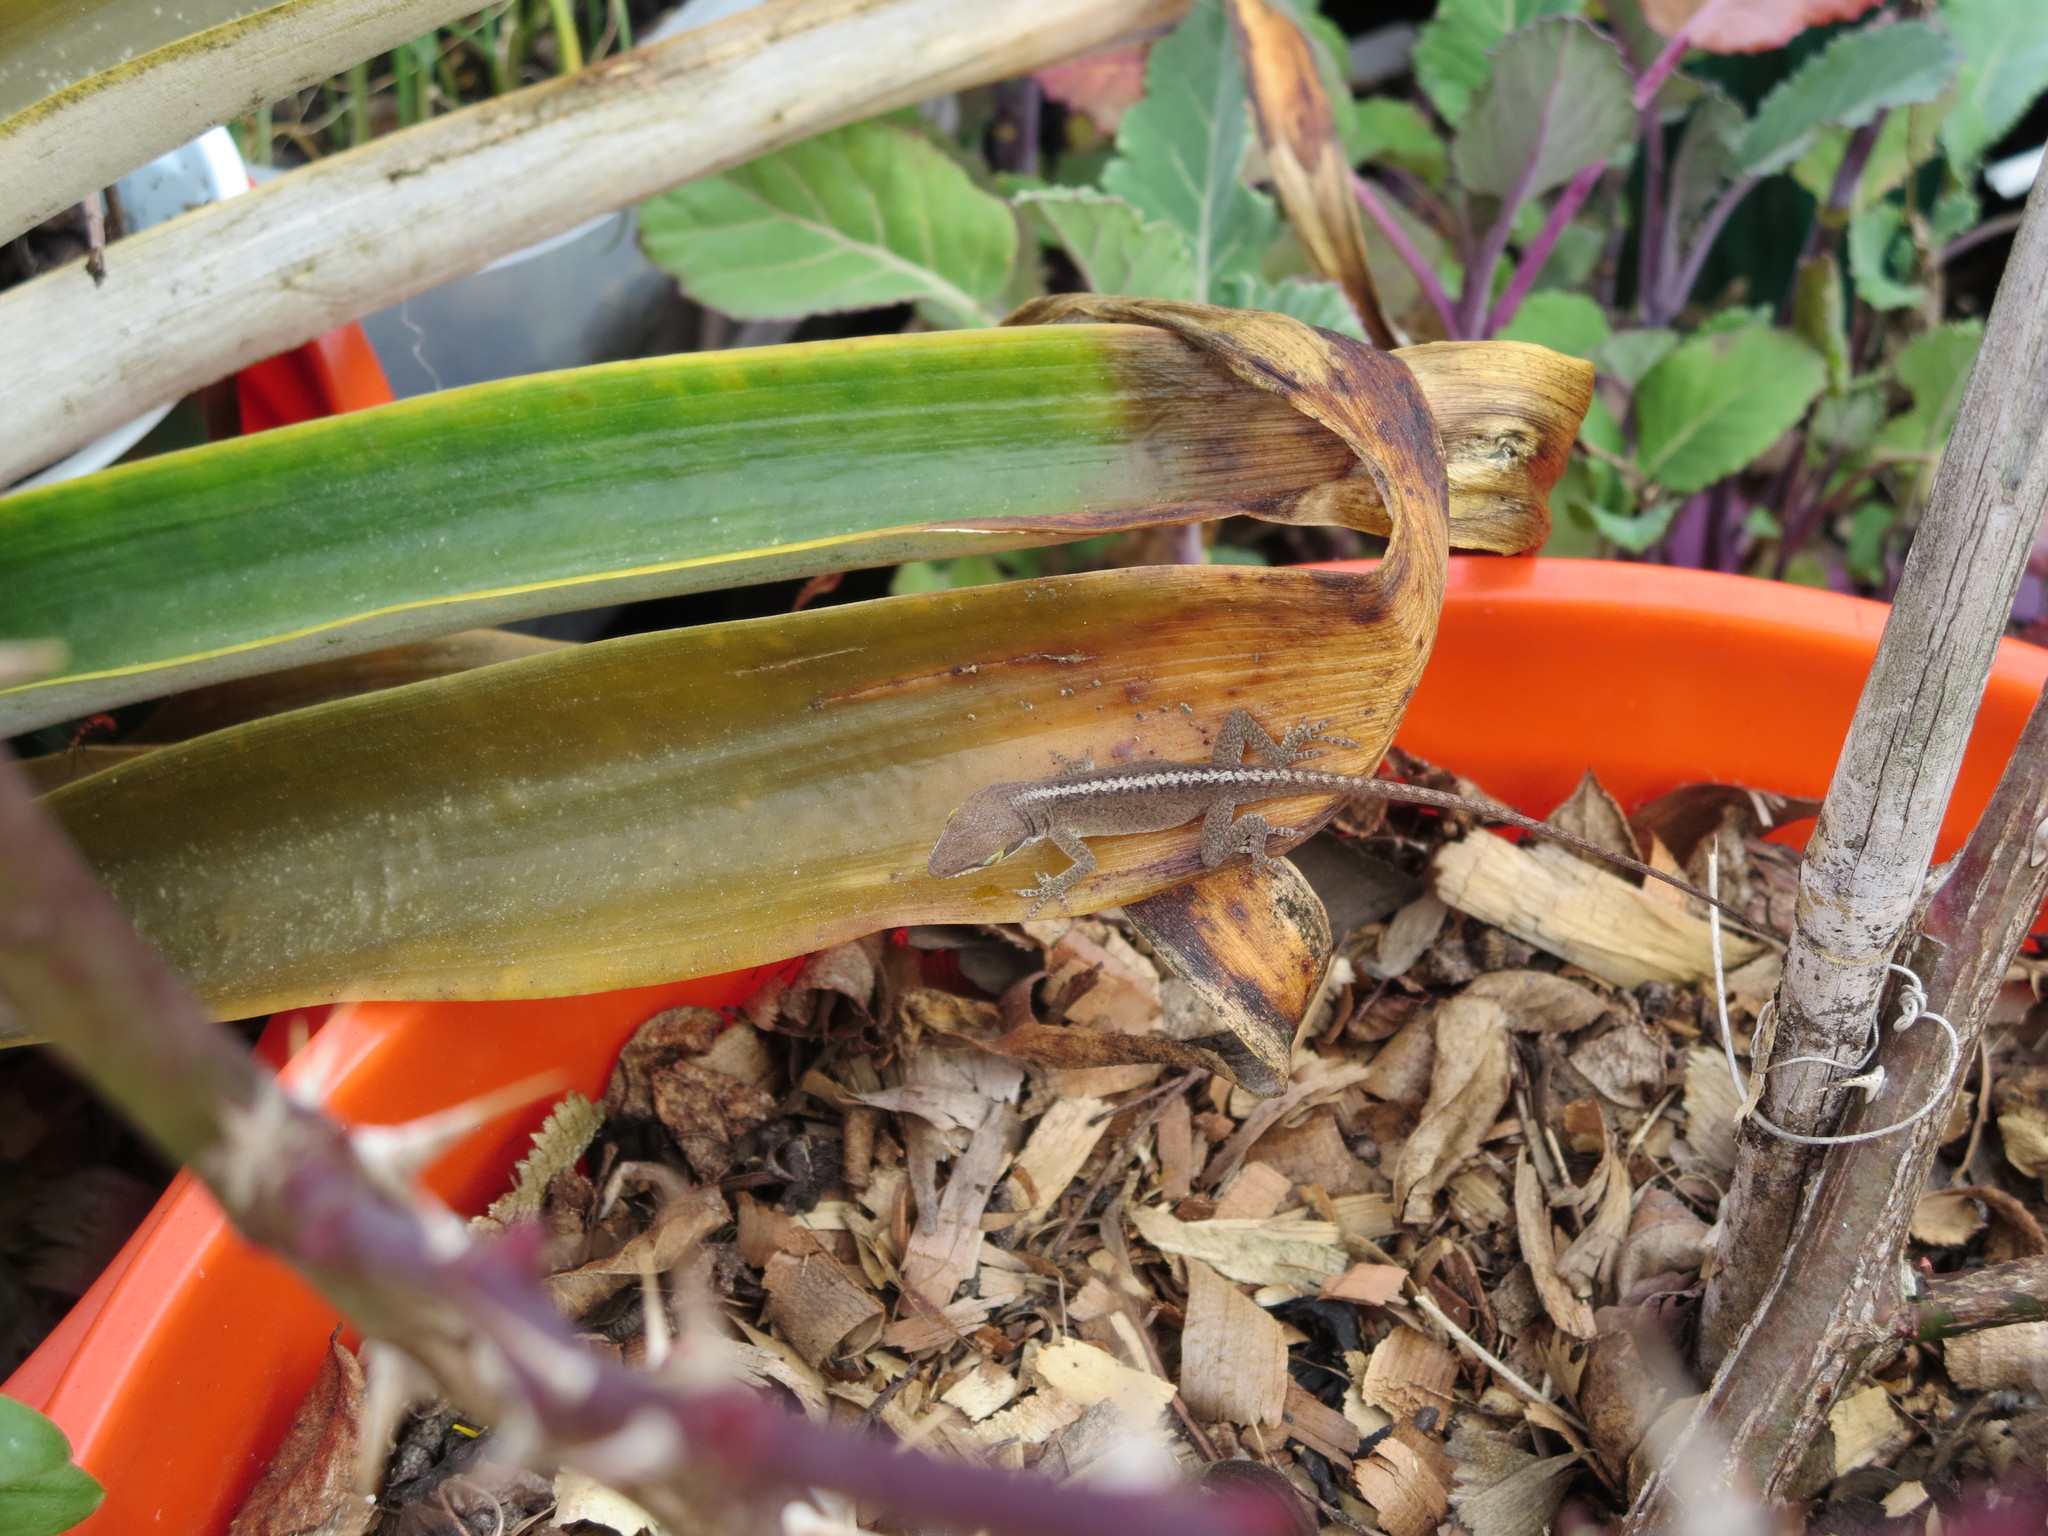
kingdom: Animalia
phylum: Chordata
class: Squamata
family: Dactyloidae
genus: Anolis
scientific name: Anolis carolinensis
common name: Green anole
